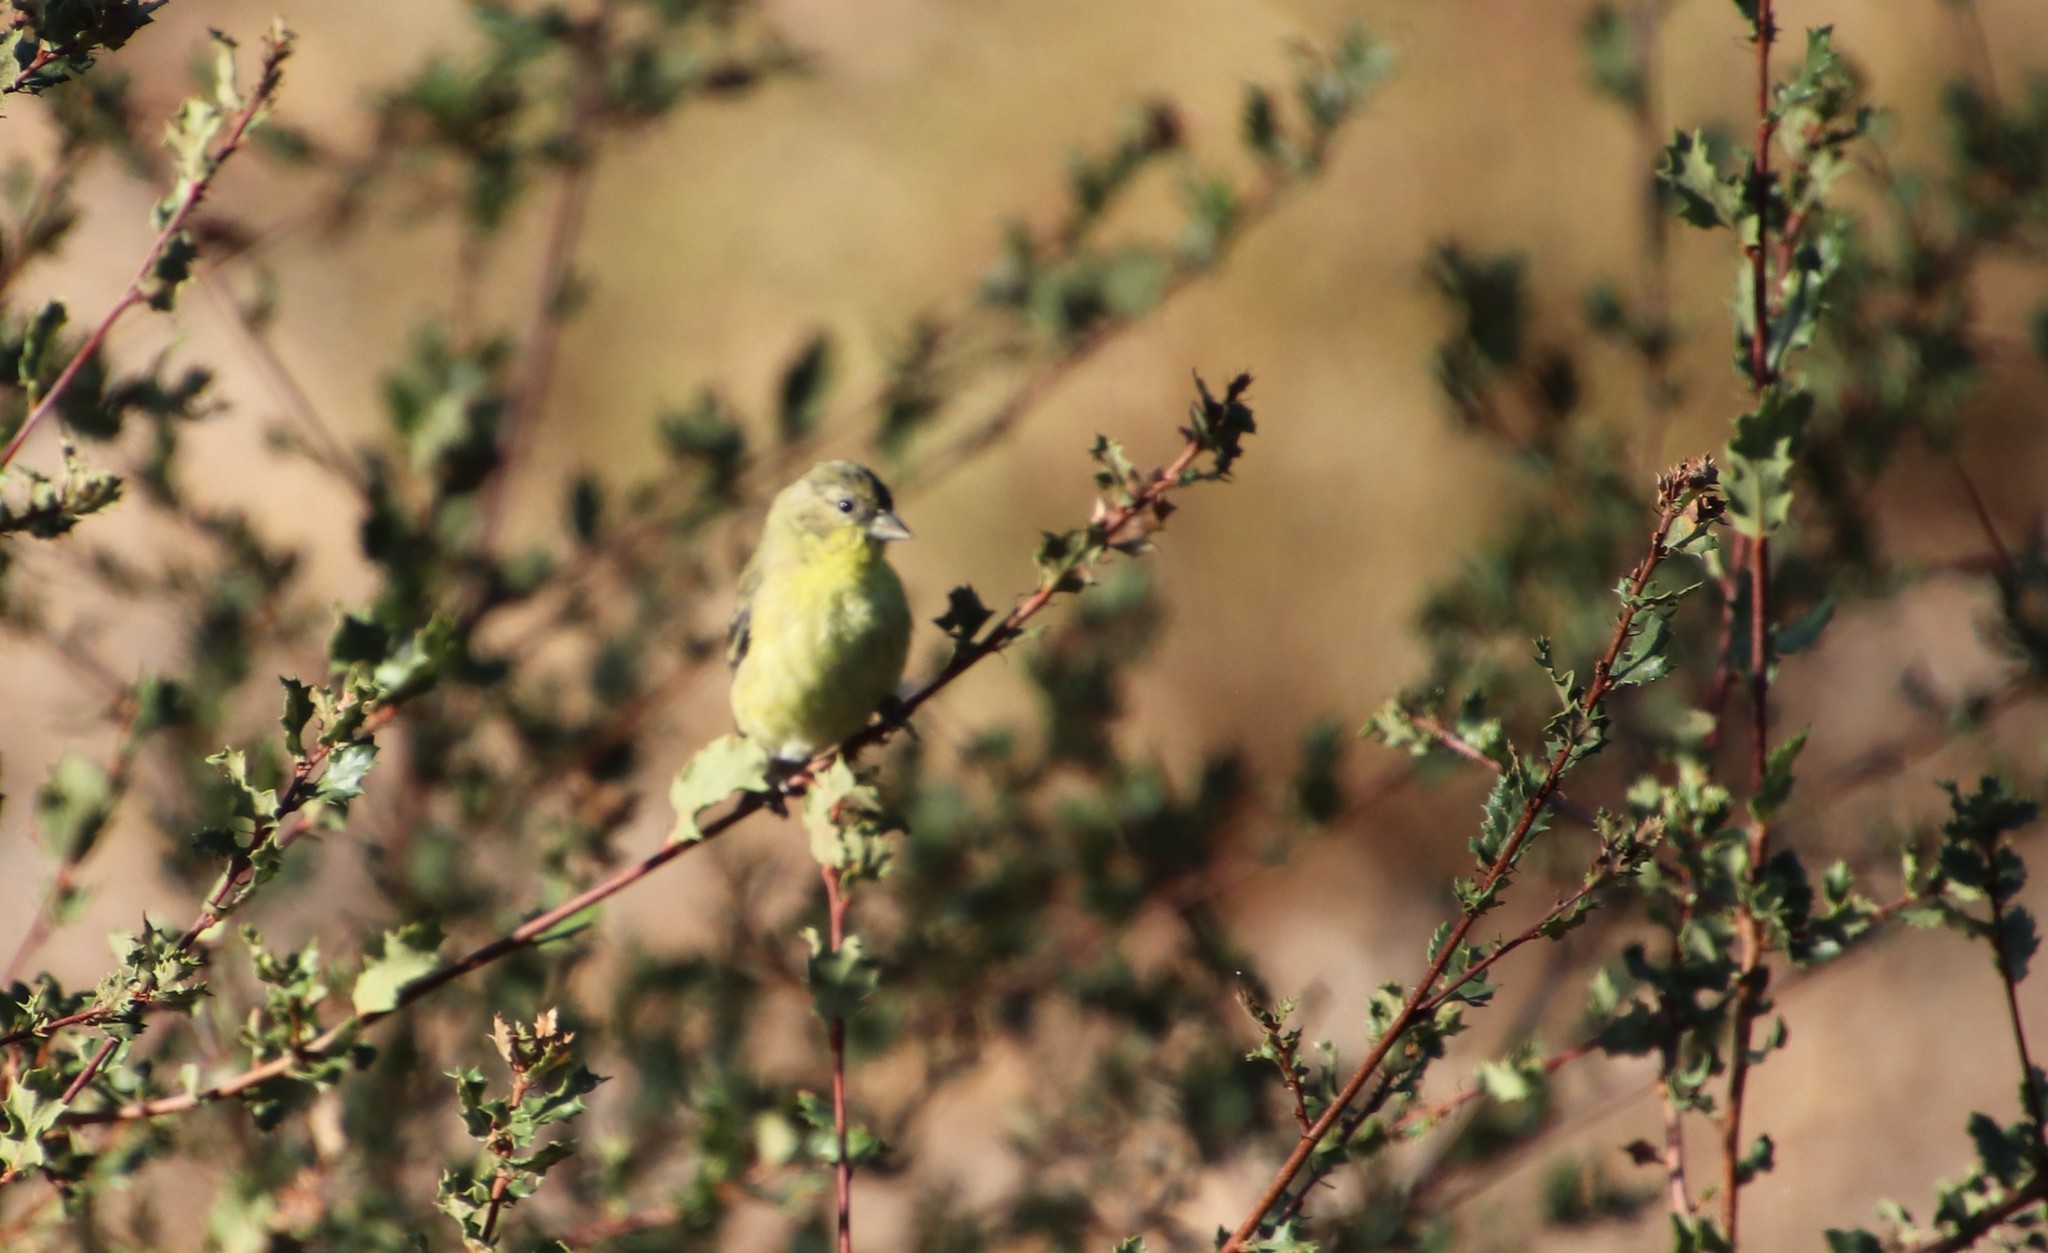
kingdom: Animalia
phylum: Chordata
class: Aves
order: Passeriformes
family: Fringillidae
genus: Spinus
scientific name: Spinus psaltria
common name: Lesser goldfinch
